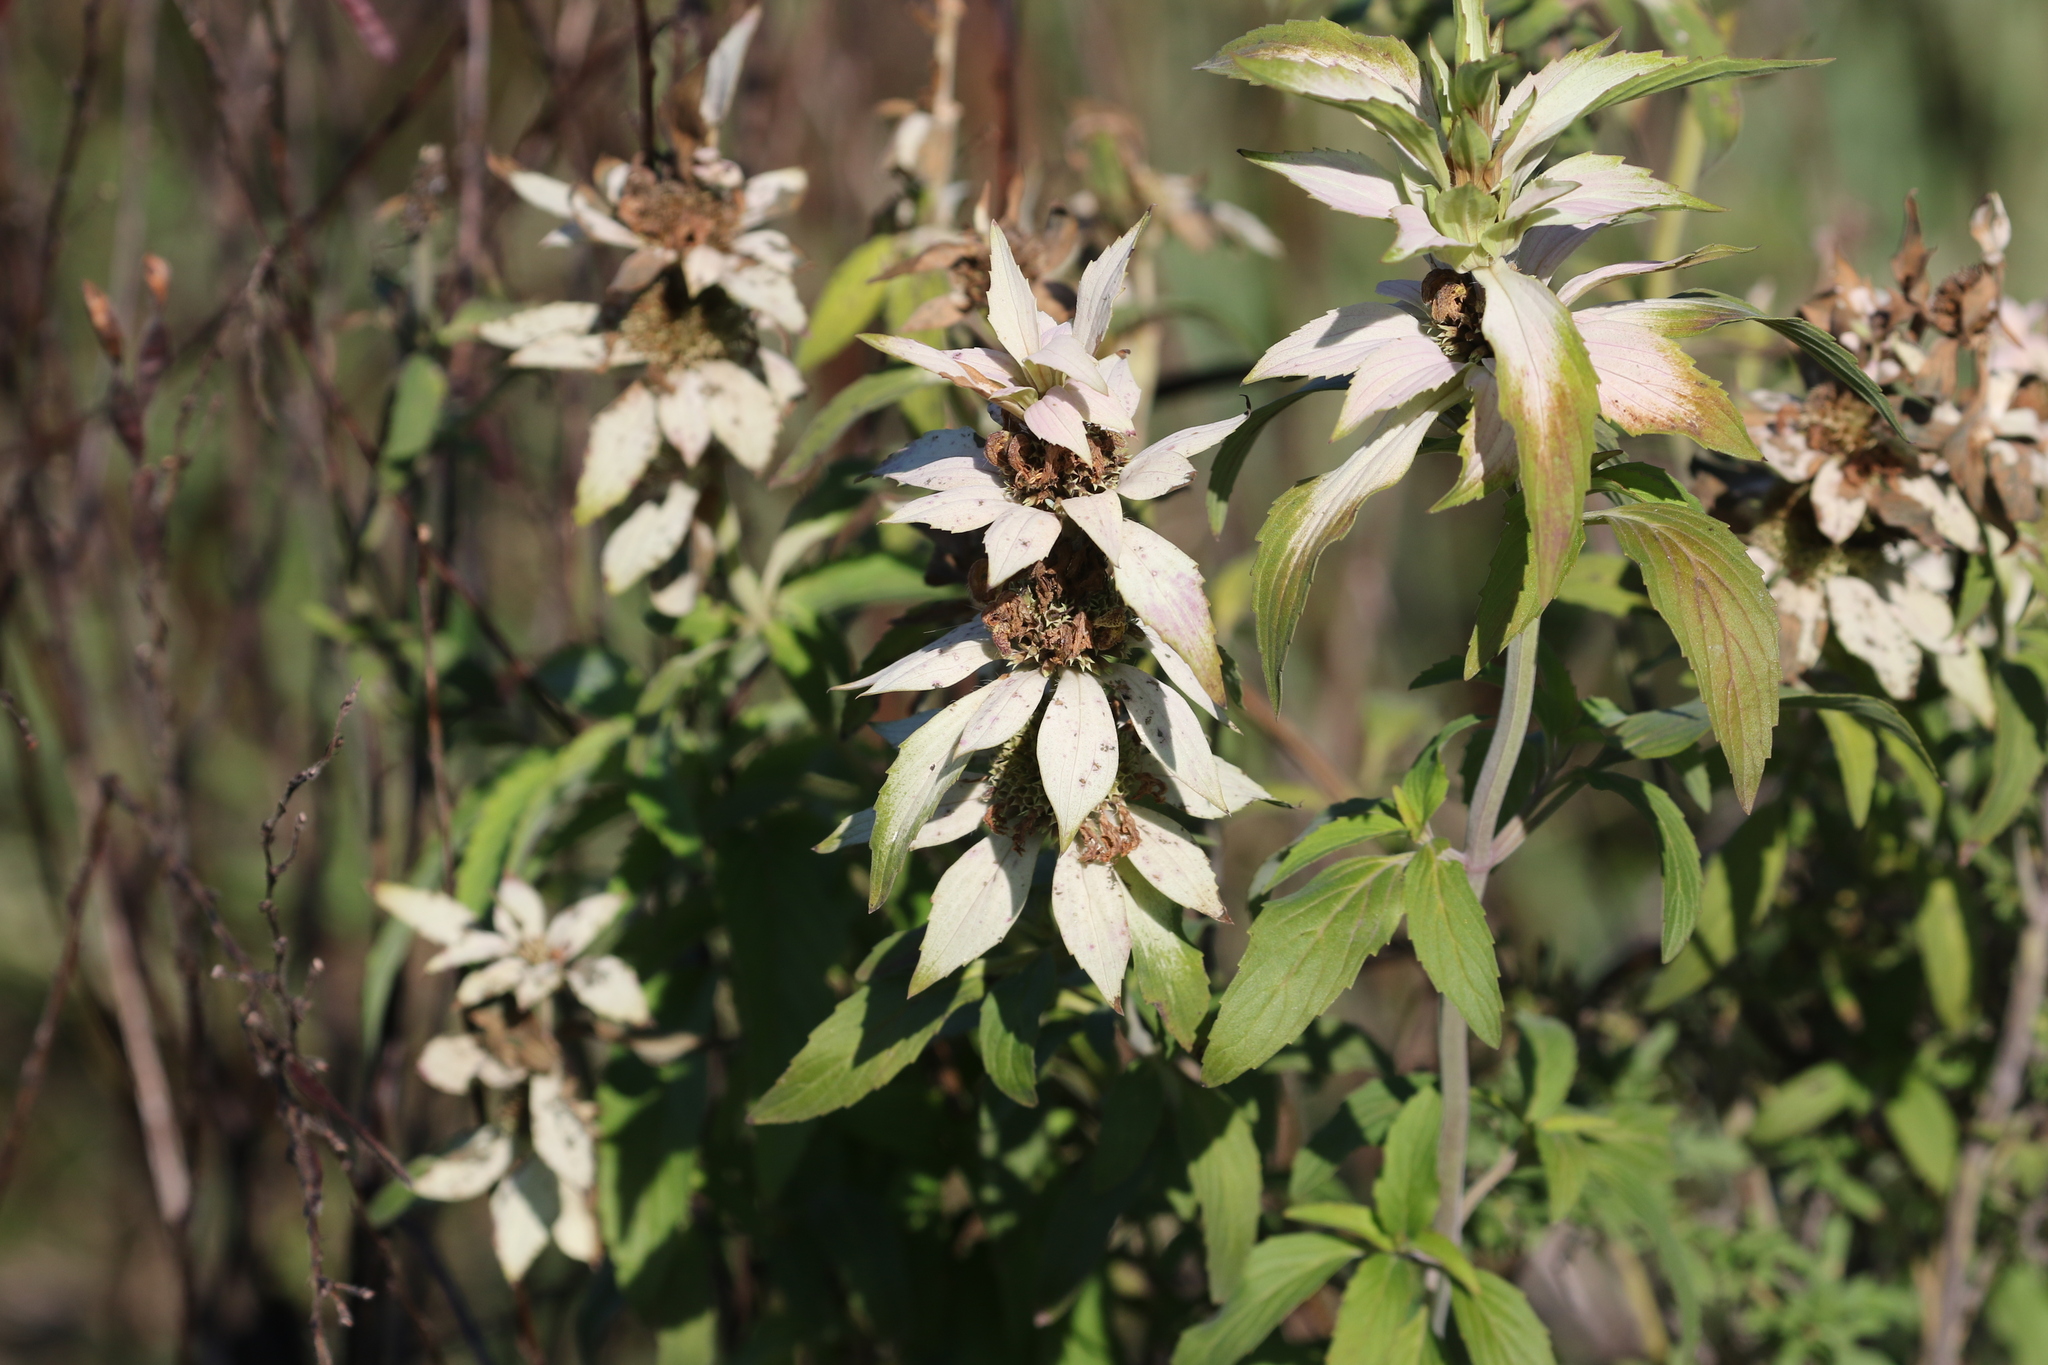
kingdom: Plantae
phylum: Tracheophyta
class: Magnoliopsida
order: Lamiales
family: Lamiaceae
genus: Monarda
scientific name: Monarda punctata
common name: Dotted monarda
